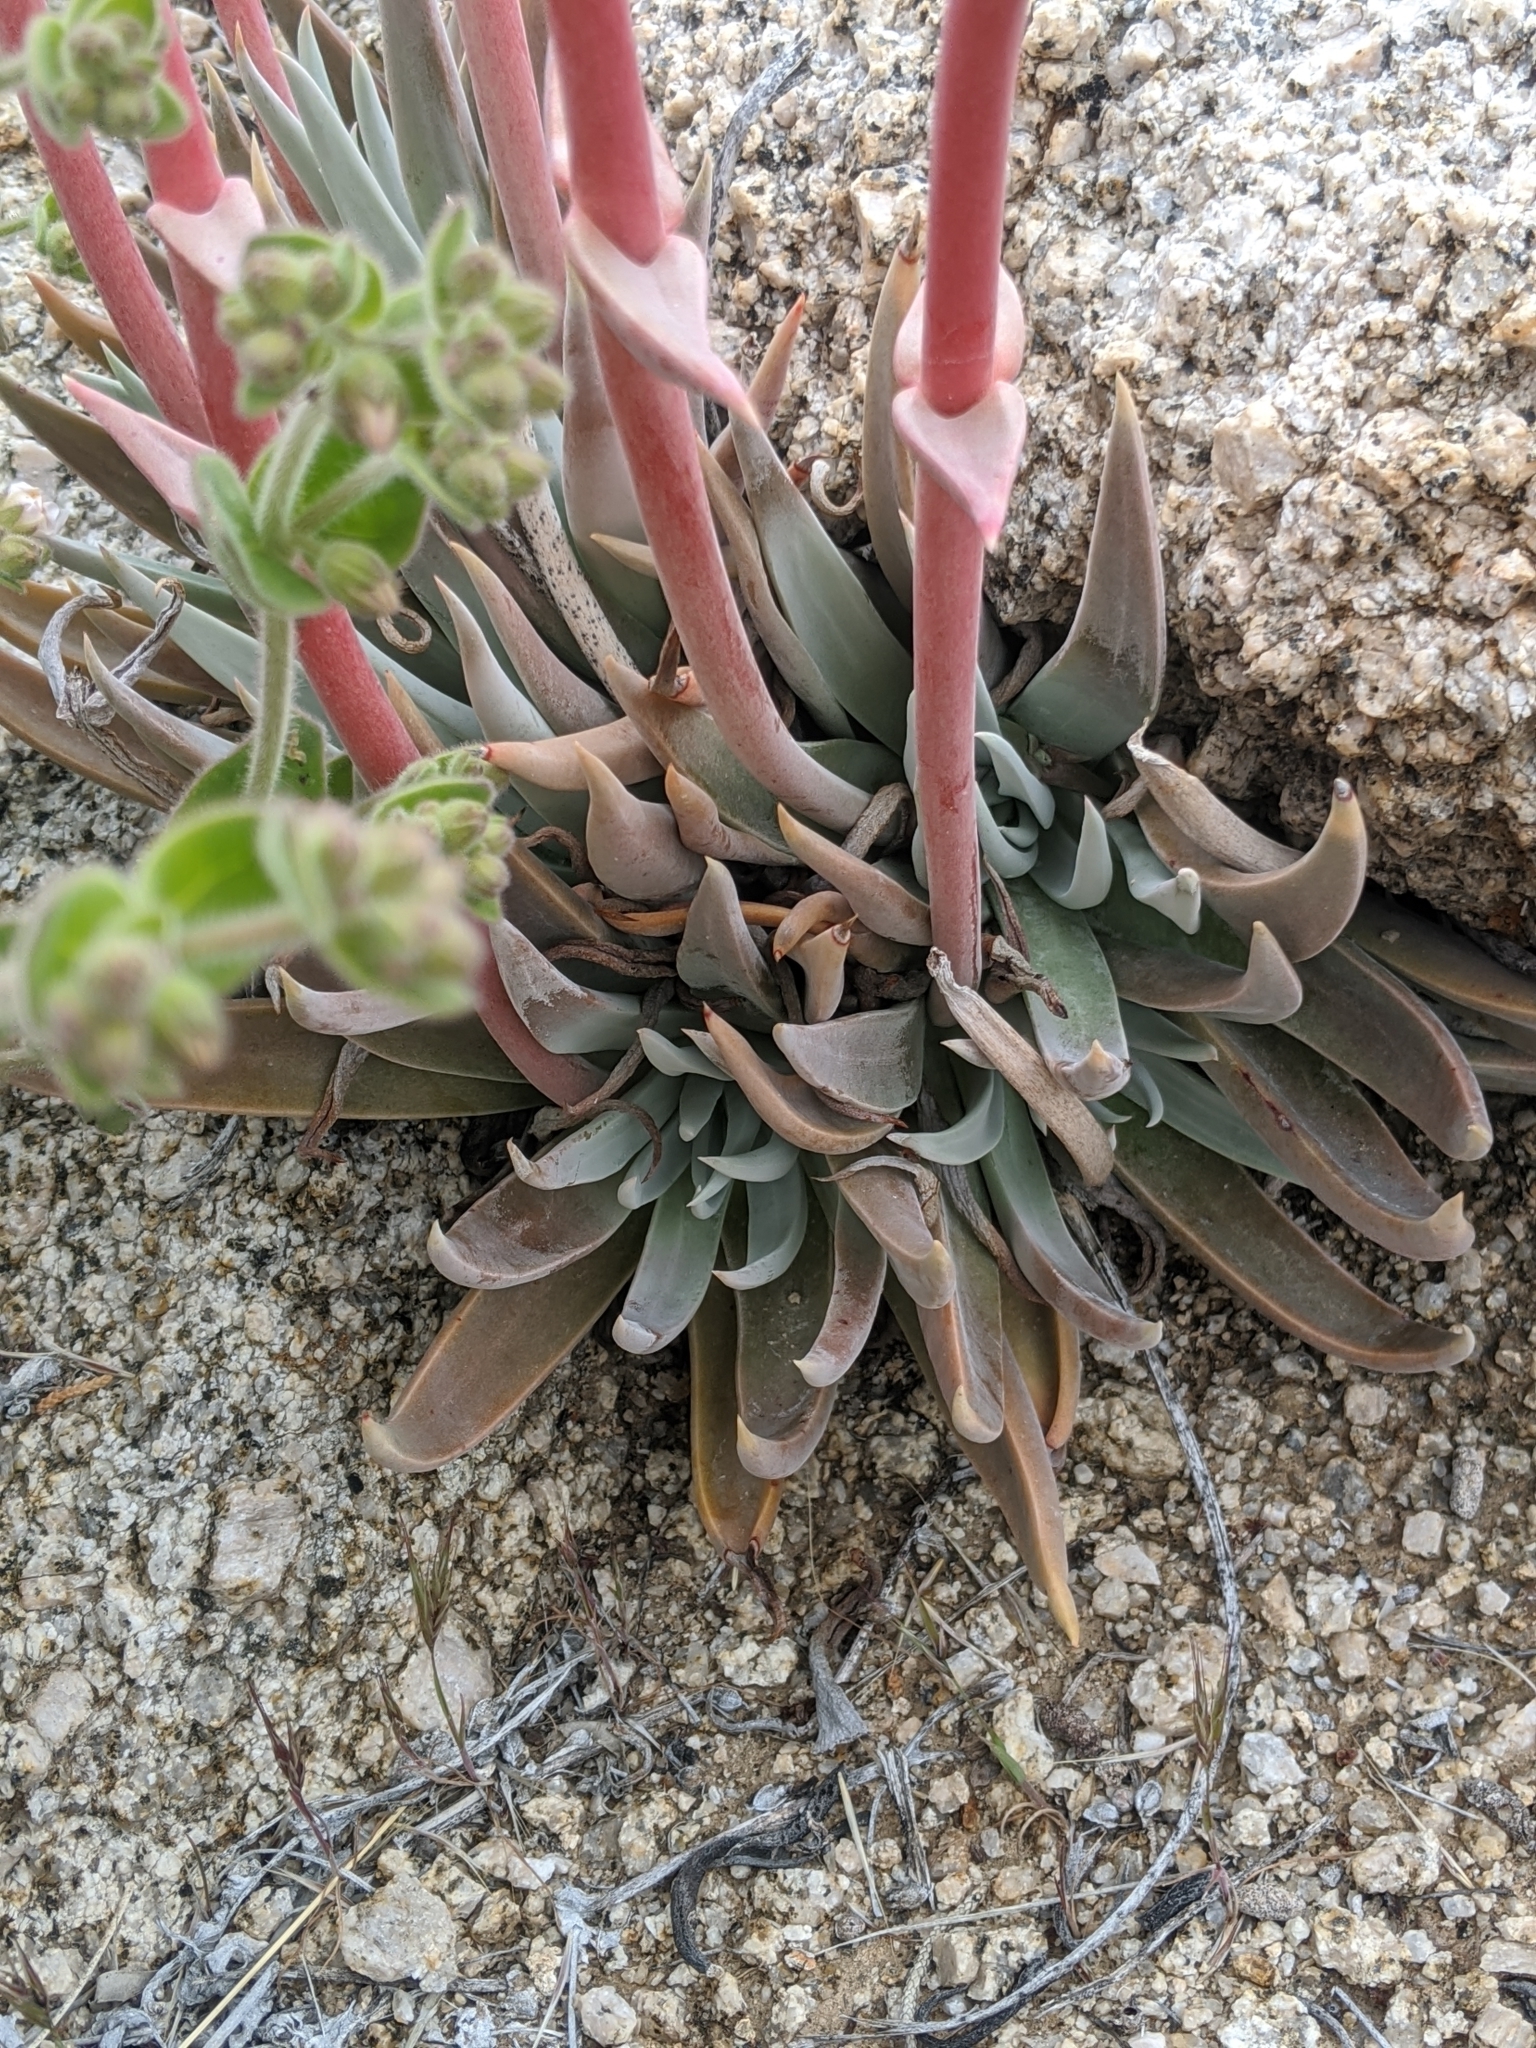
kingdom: Plantae
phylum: Tracheophyta
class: Magnoliopsida
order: Saxifragales
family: Crassulaceae
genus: Dudleya
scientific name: Dudleya saxosa
